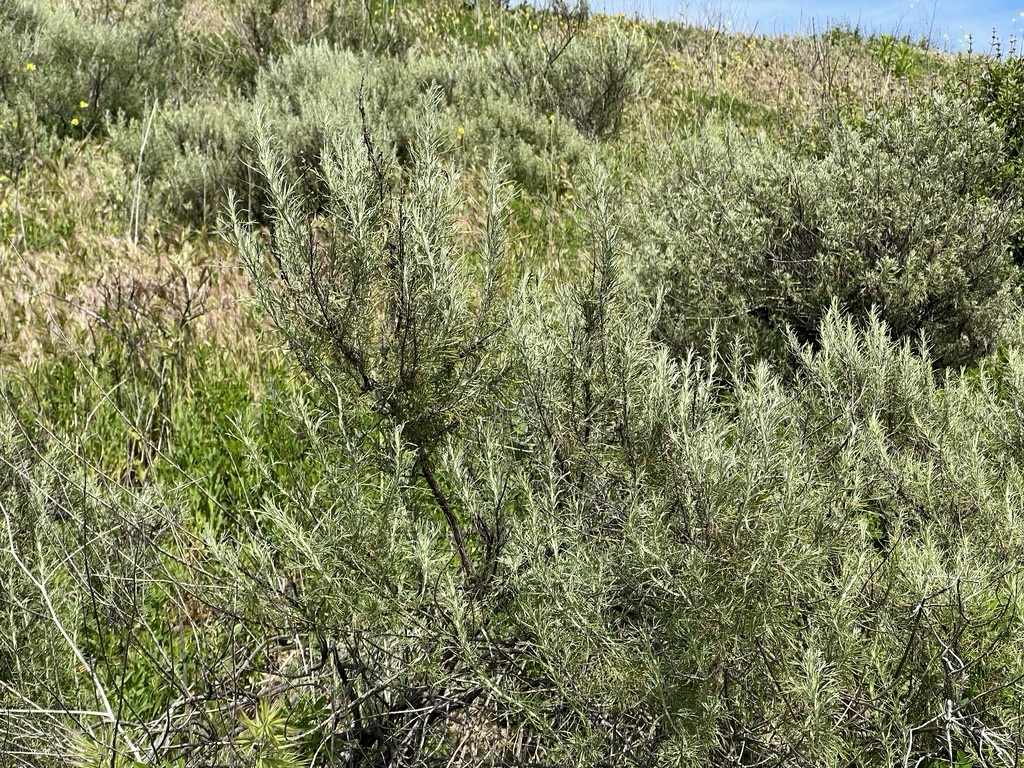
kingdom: Plantae
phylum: Tracheophyta
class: Magnoliopsida
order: Asterales
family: Asteraceae
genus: Artemisia
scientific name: Artemisia californica
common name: California sagebrush
